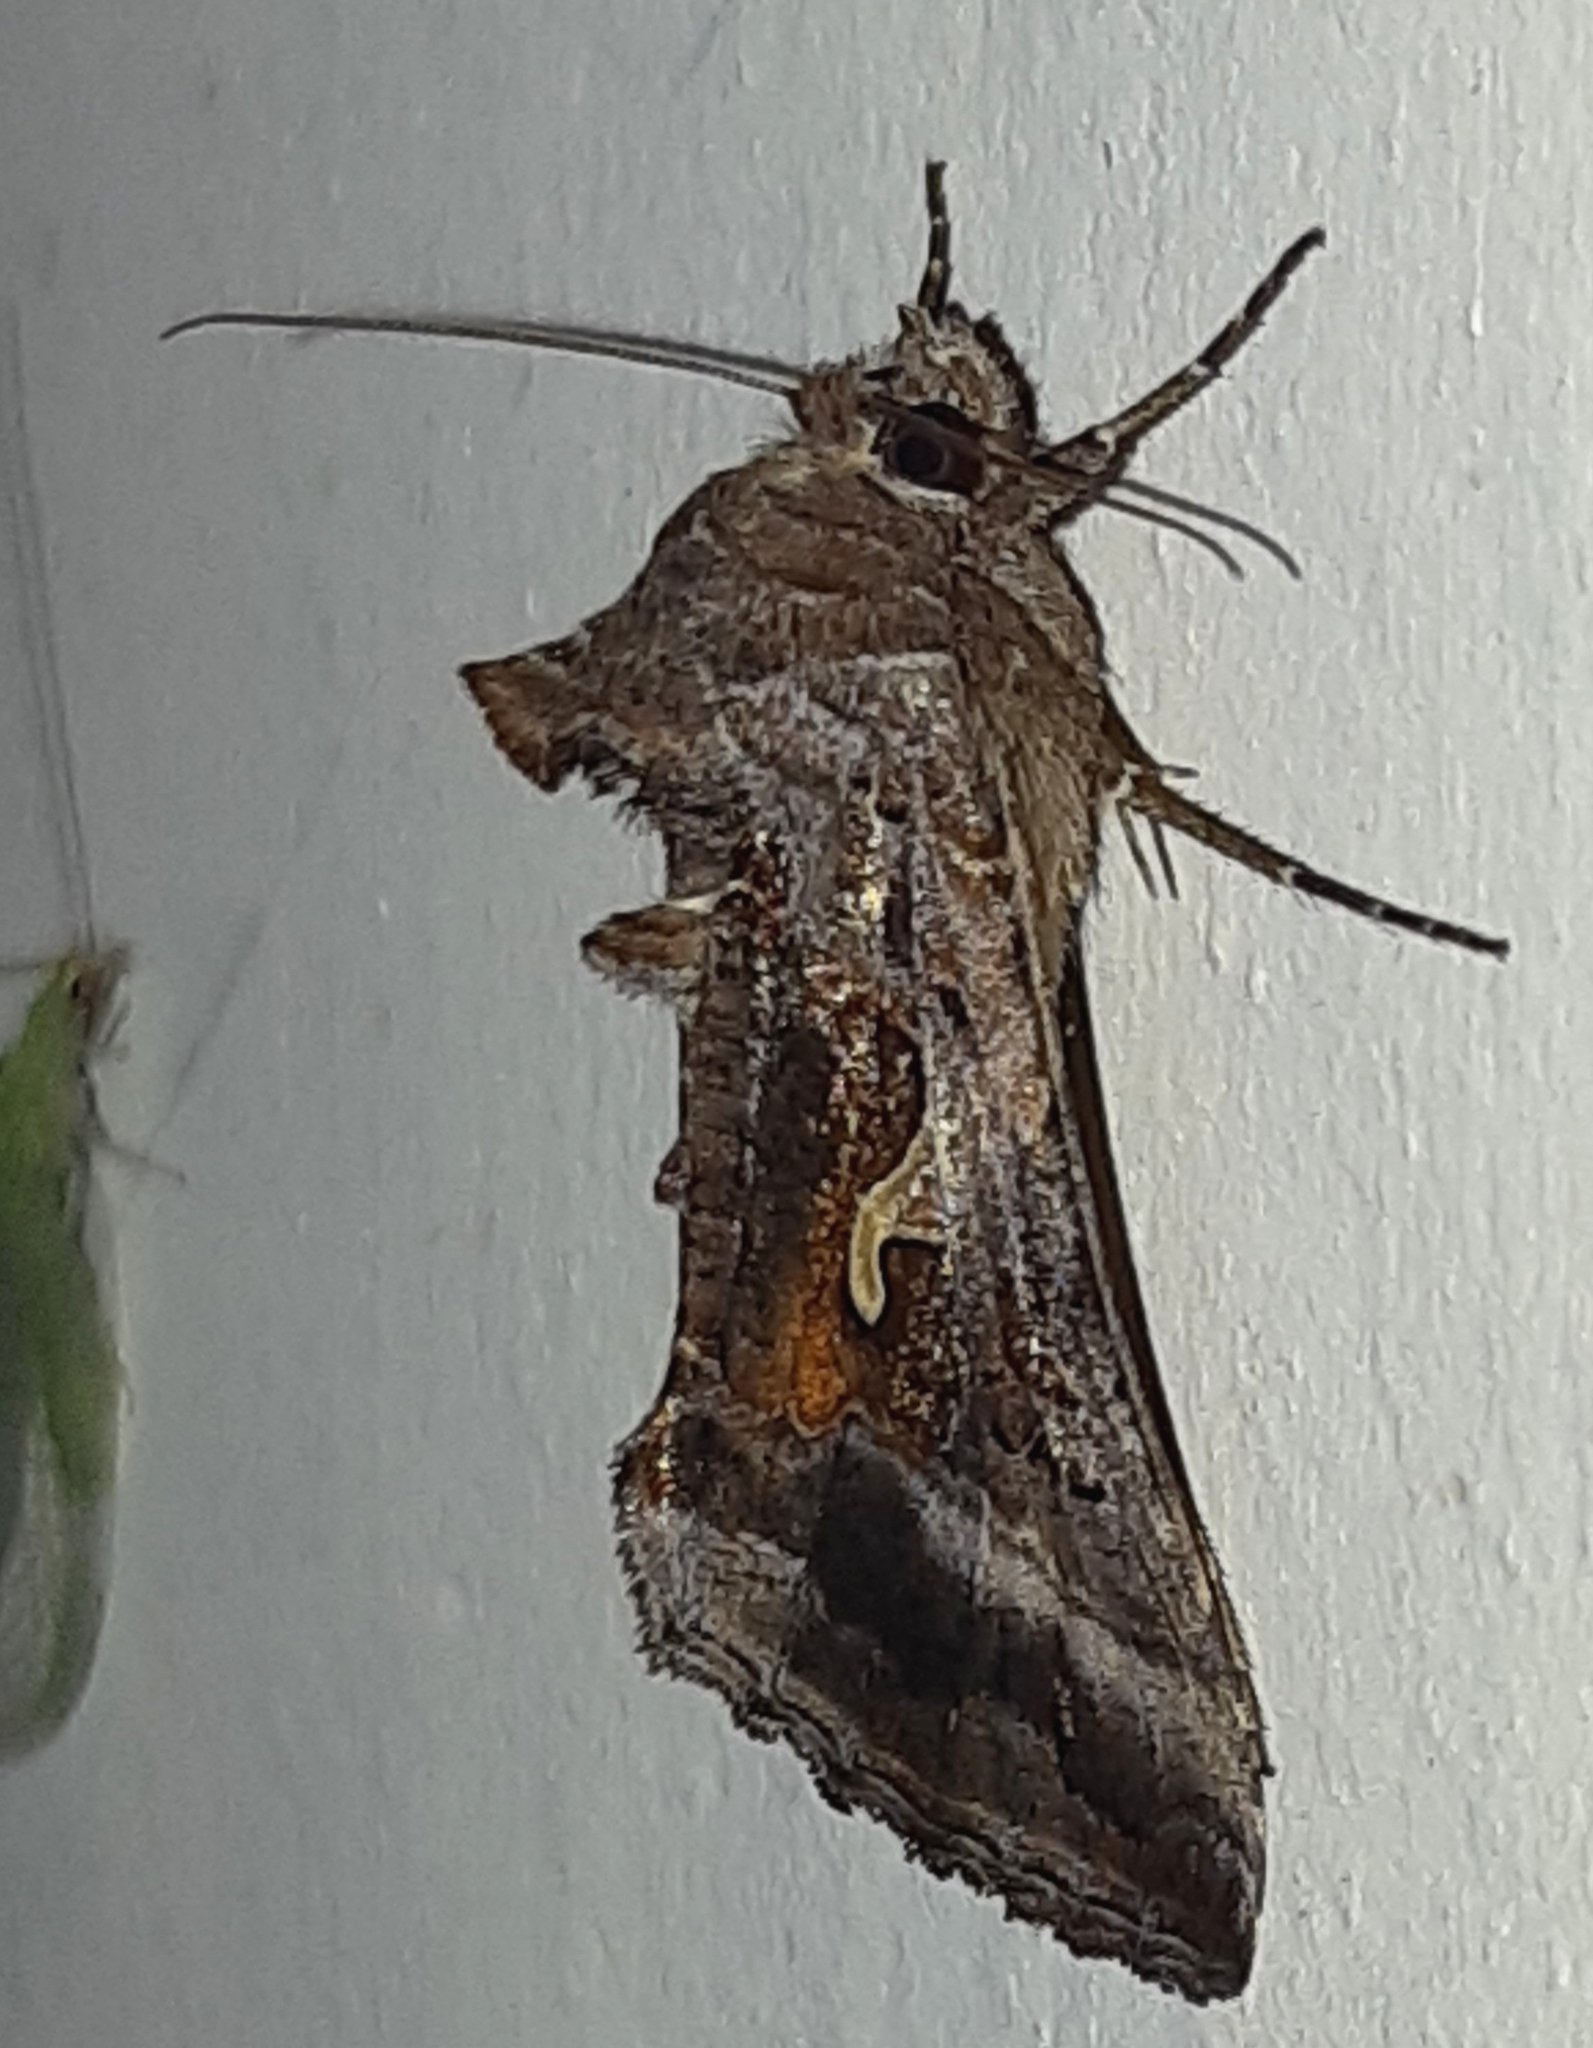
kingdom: Animalia
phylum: Arthropoda
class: Insecta
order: Lepidoptera
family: Noctuidae
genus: Autographa
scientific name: Autographa gamma
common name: Silver y
